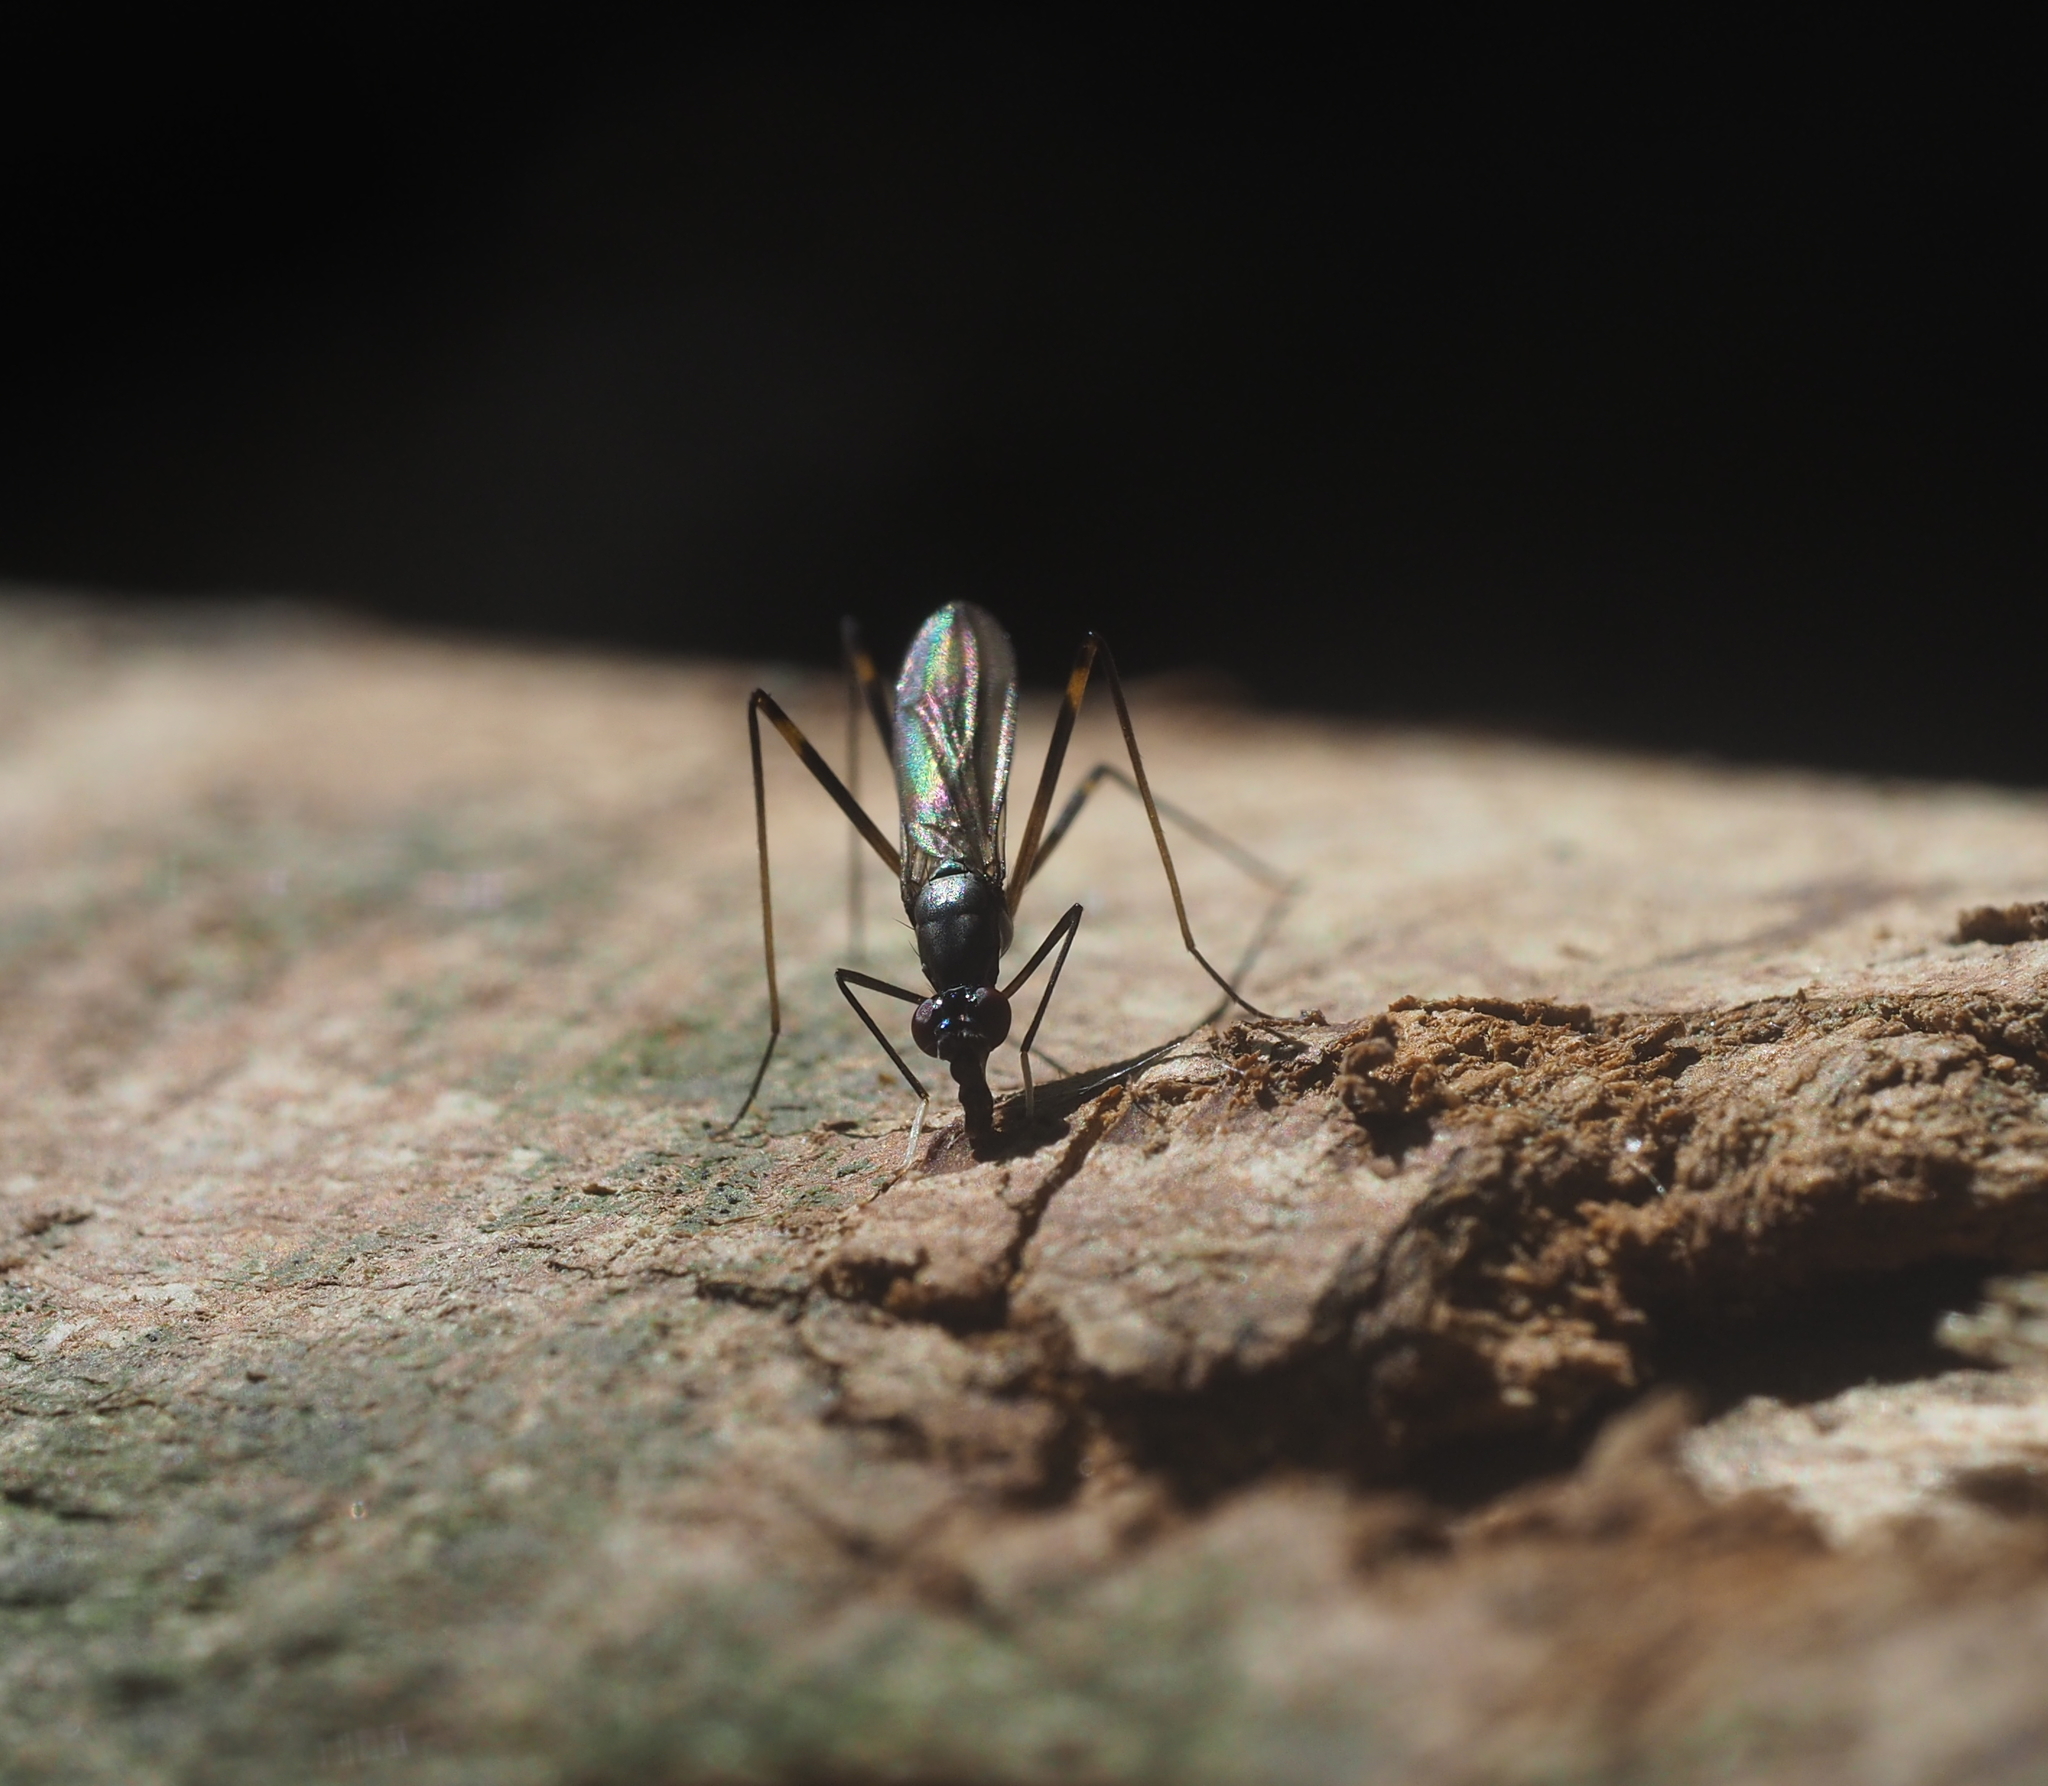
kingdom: Animalia
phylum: Arthropoda
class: Insecta
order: Diptera
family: Micropezidae
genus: Rainieria
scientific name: Rainieria latifrons
